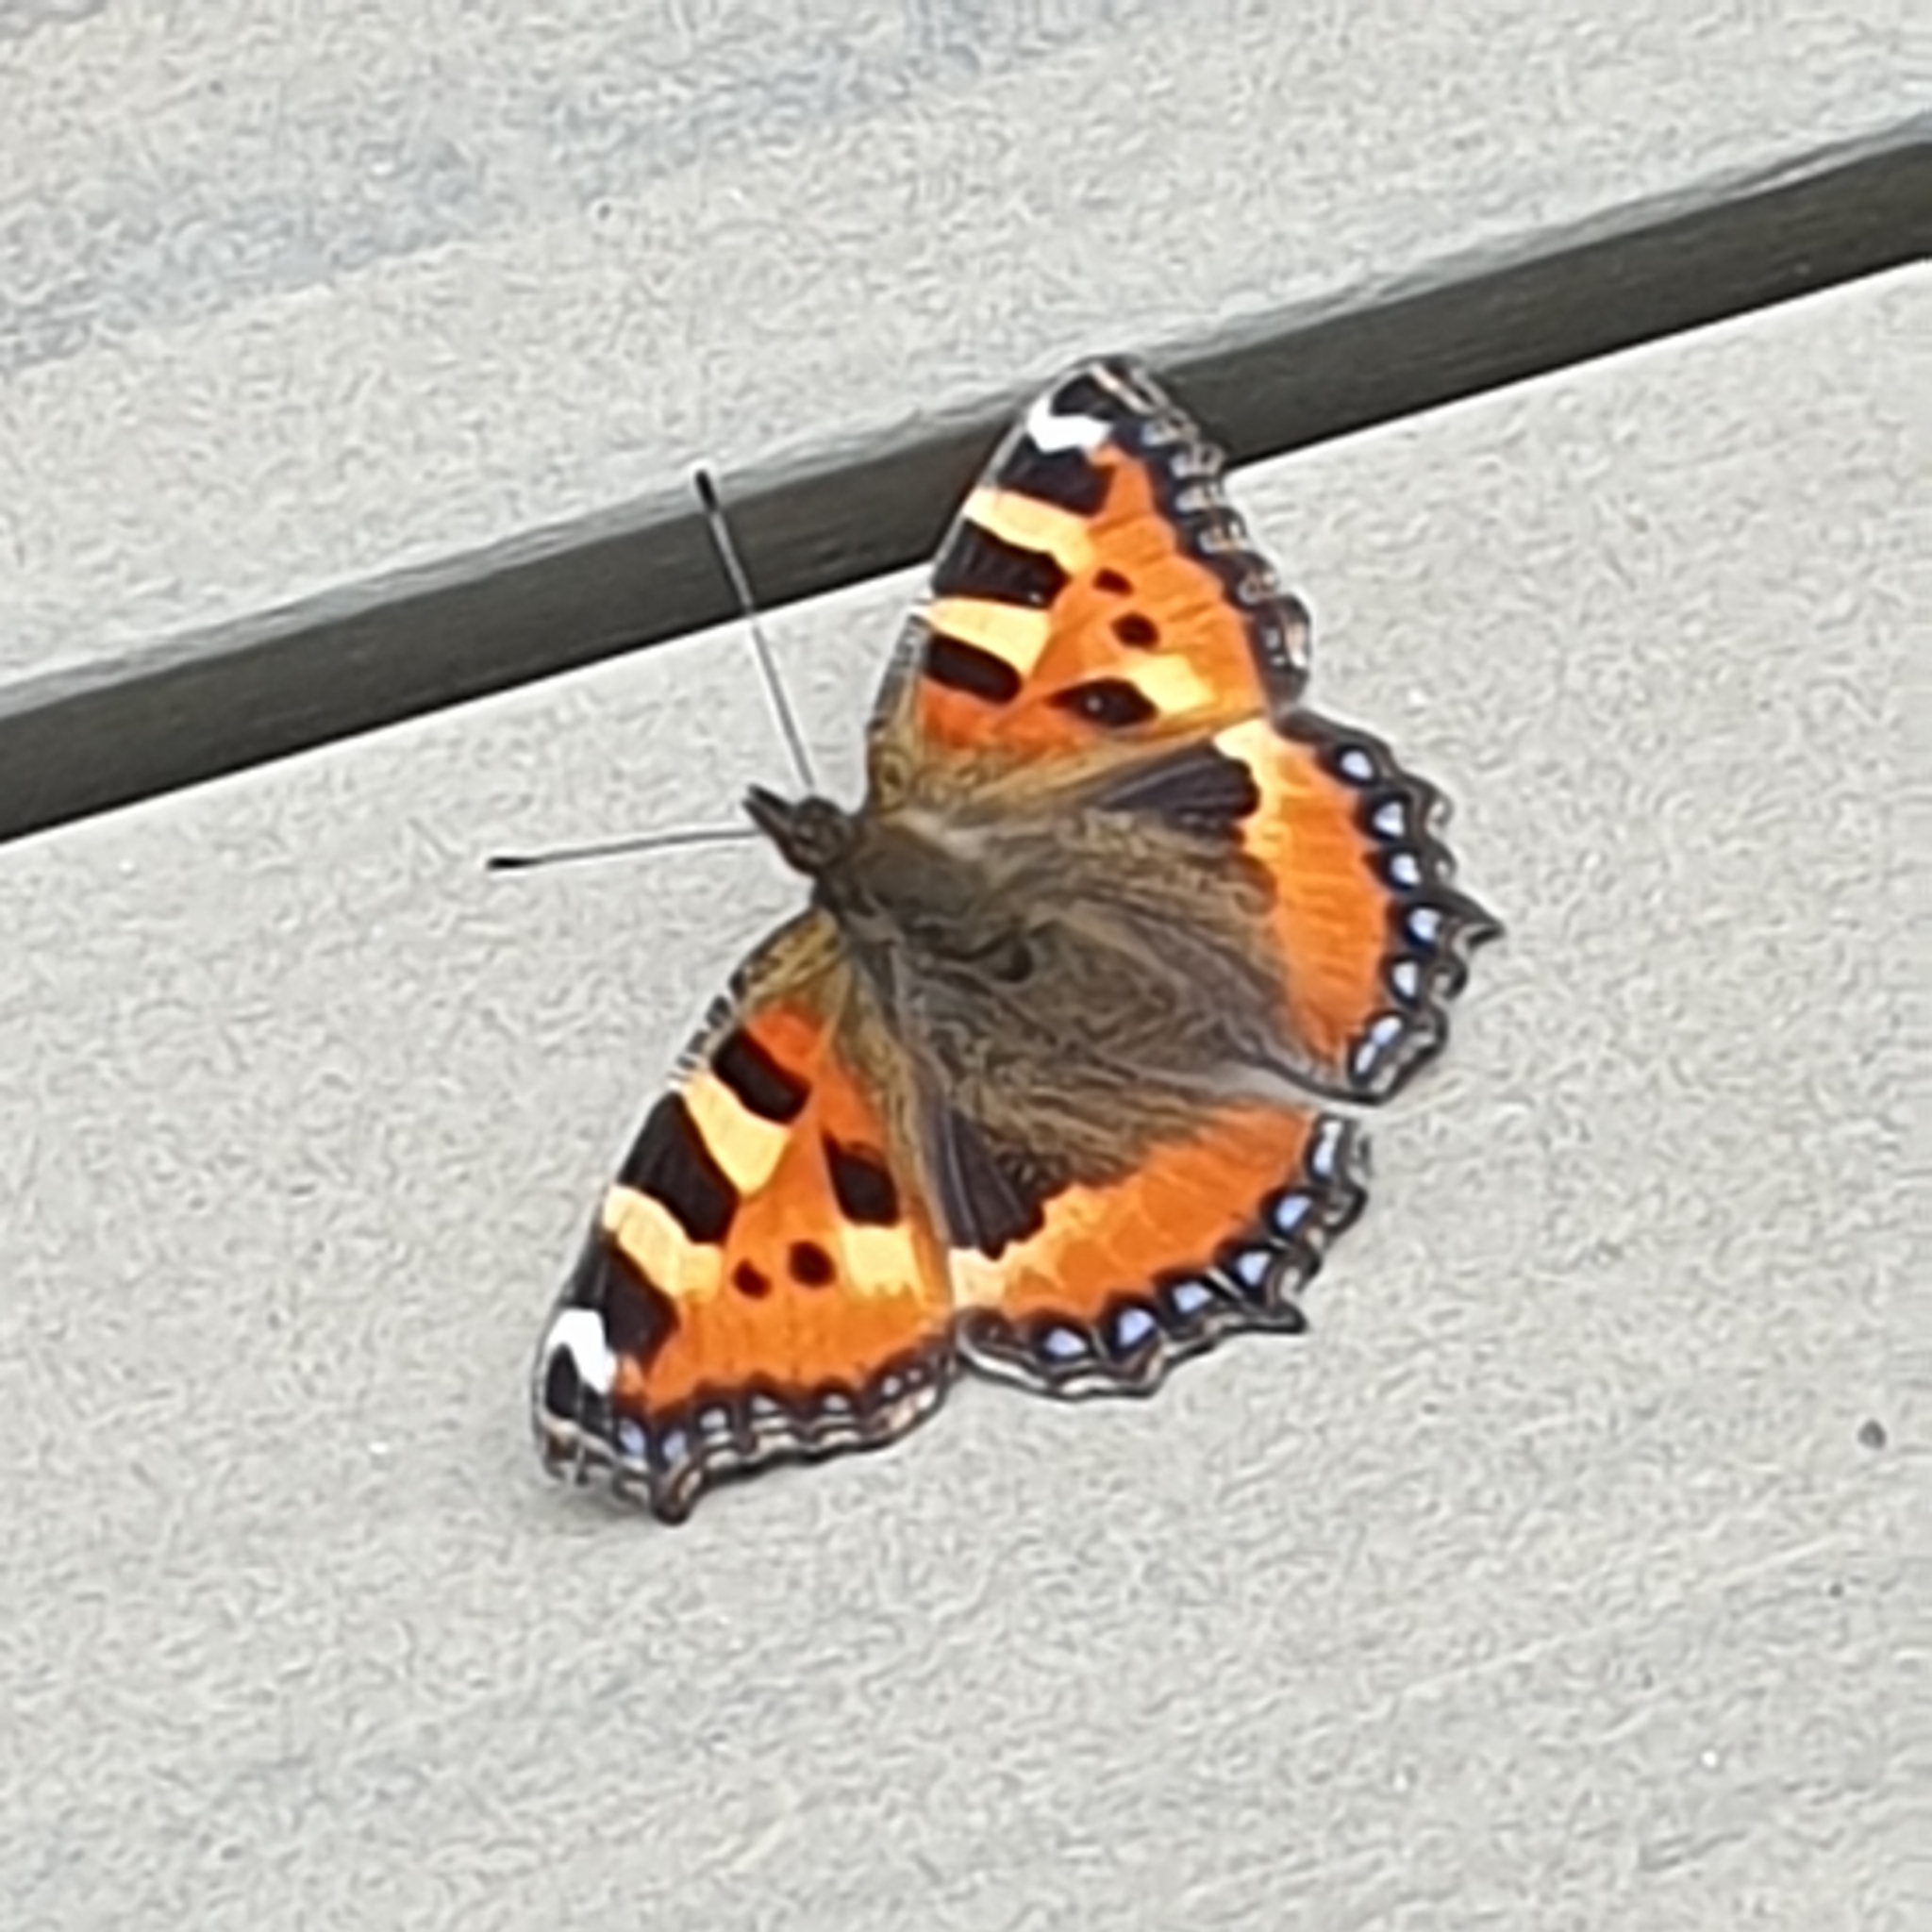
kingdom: Animalia
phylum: Arthropoda
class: Insecta
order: Lepidoptera
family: Nymphalidae
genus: Aglais
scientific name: Aglais urticae
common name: Small tortoiseshell
